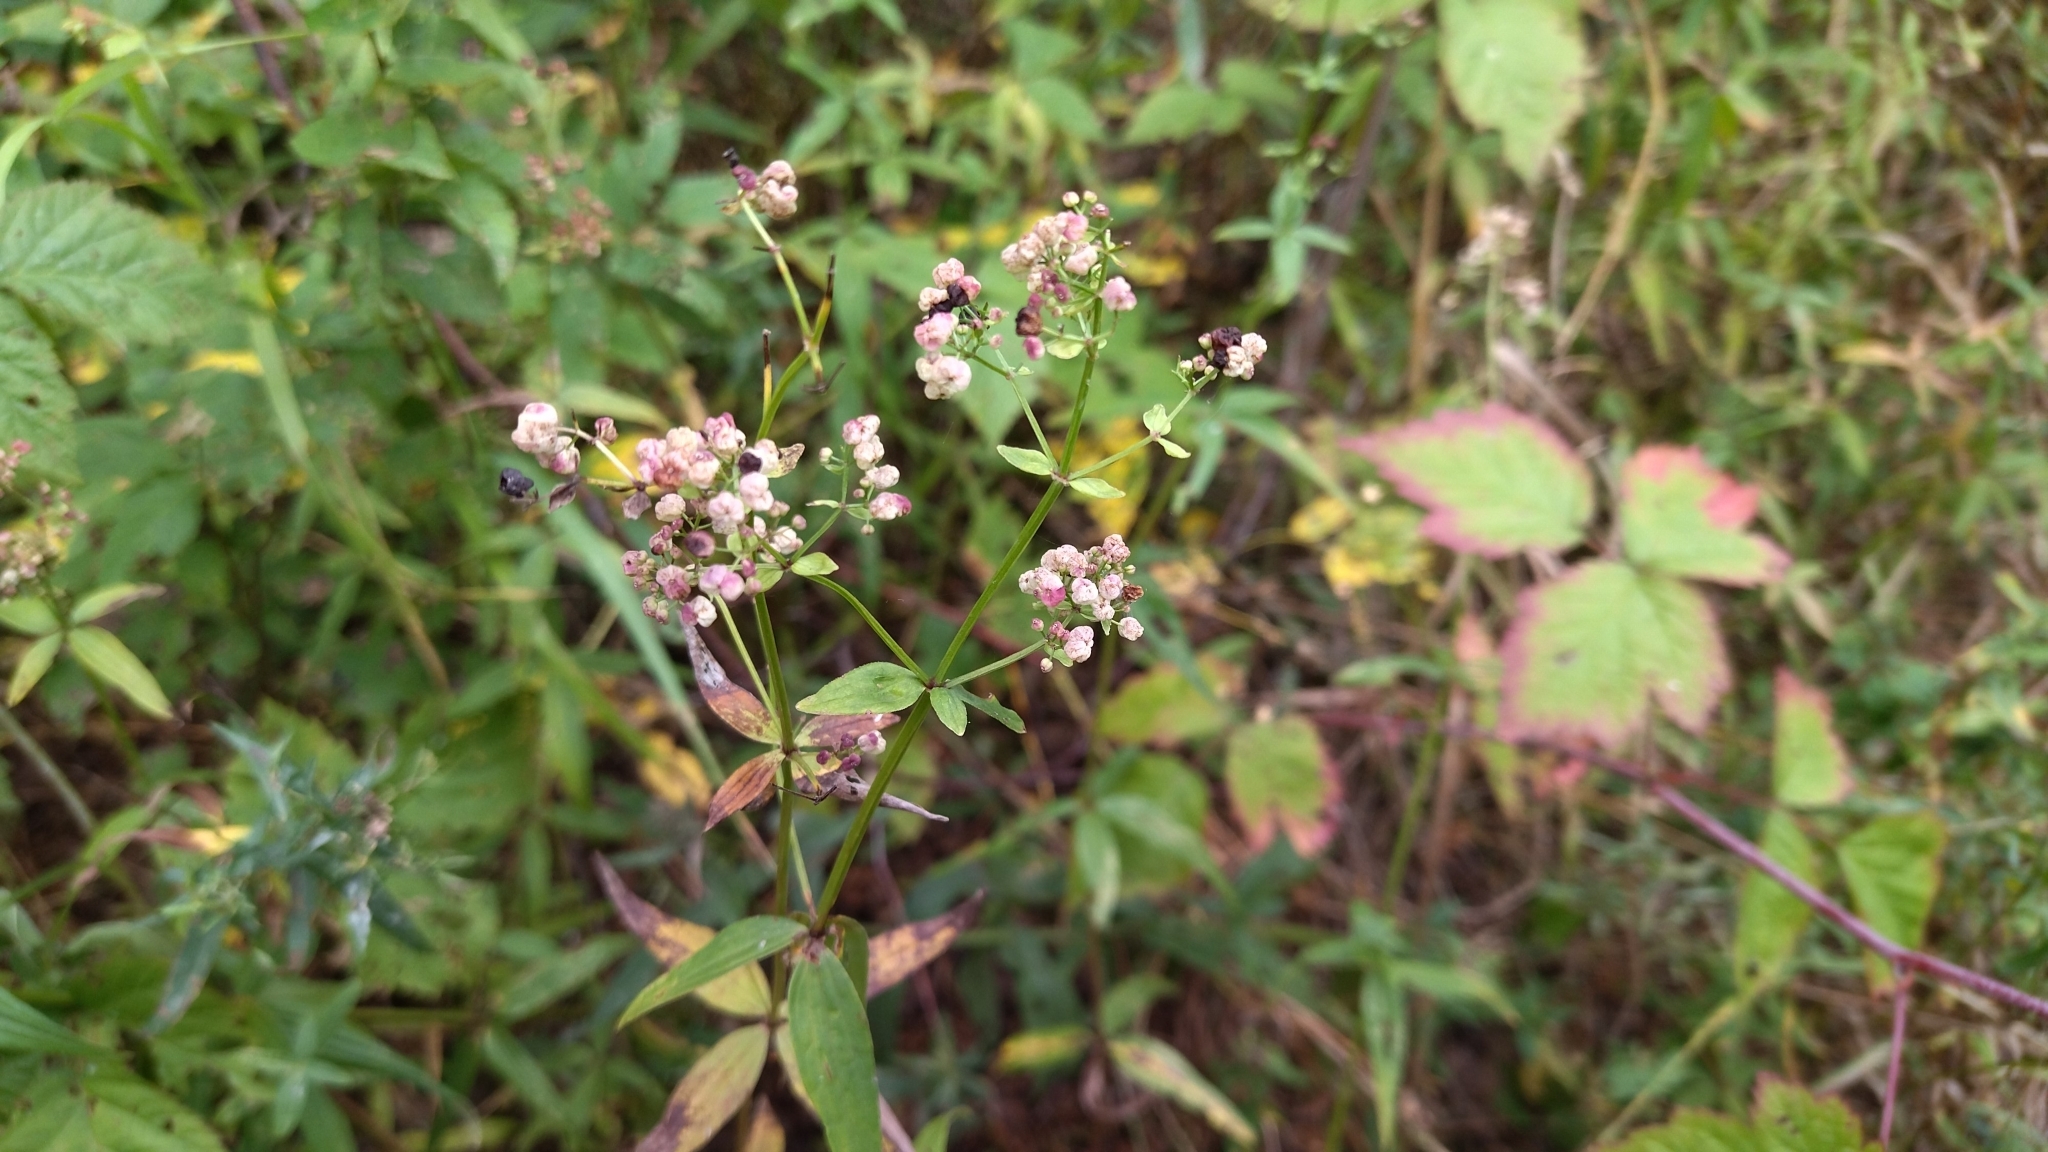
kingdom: Plantae
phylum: Tracheophyta
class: Magnoliopsida
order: Gentianales
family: Rubiaceae
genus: Galium
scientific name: Galium rubioides
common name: European bedstraw
